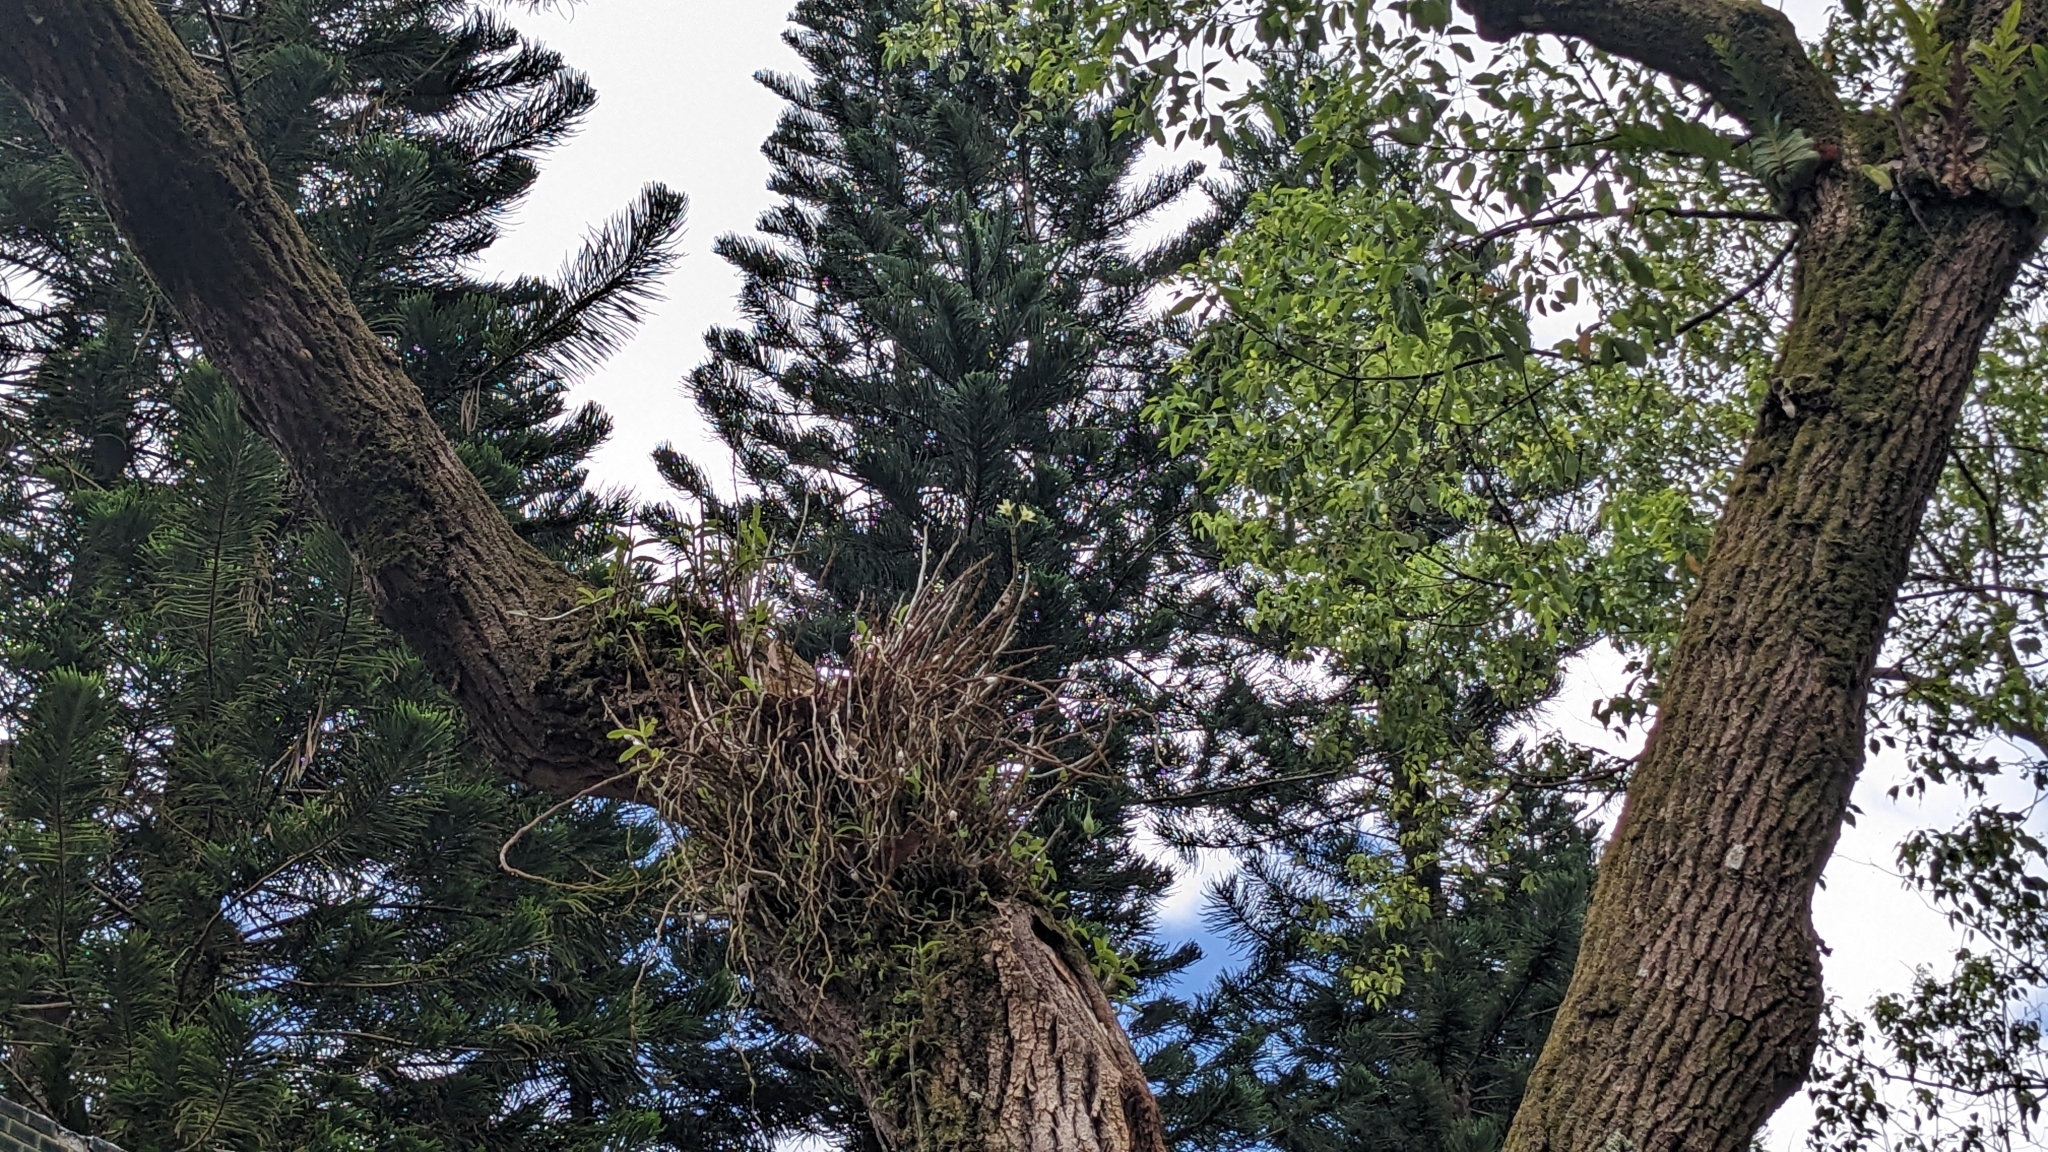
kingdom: Plantae
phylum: Tracheophyta
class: Liliopsida
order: Asparagales
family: Orchidaceae
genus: Dendrobium
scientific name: Dendrobium officinale
